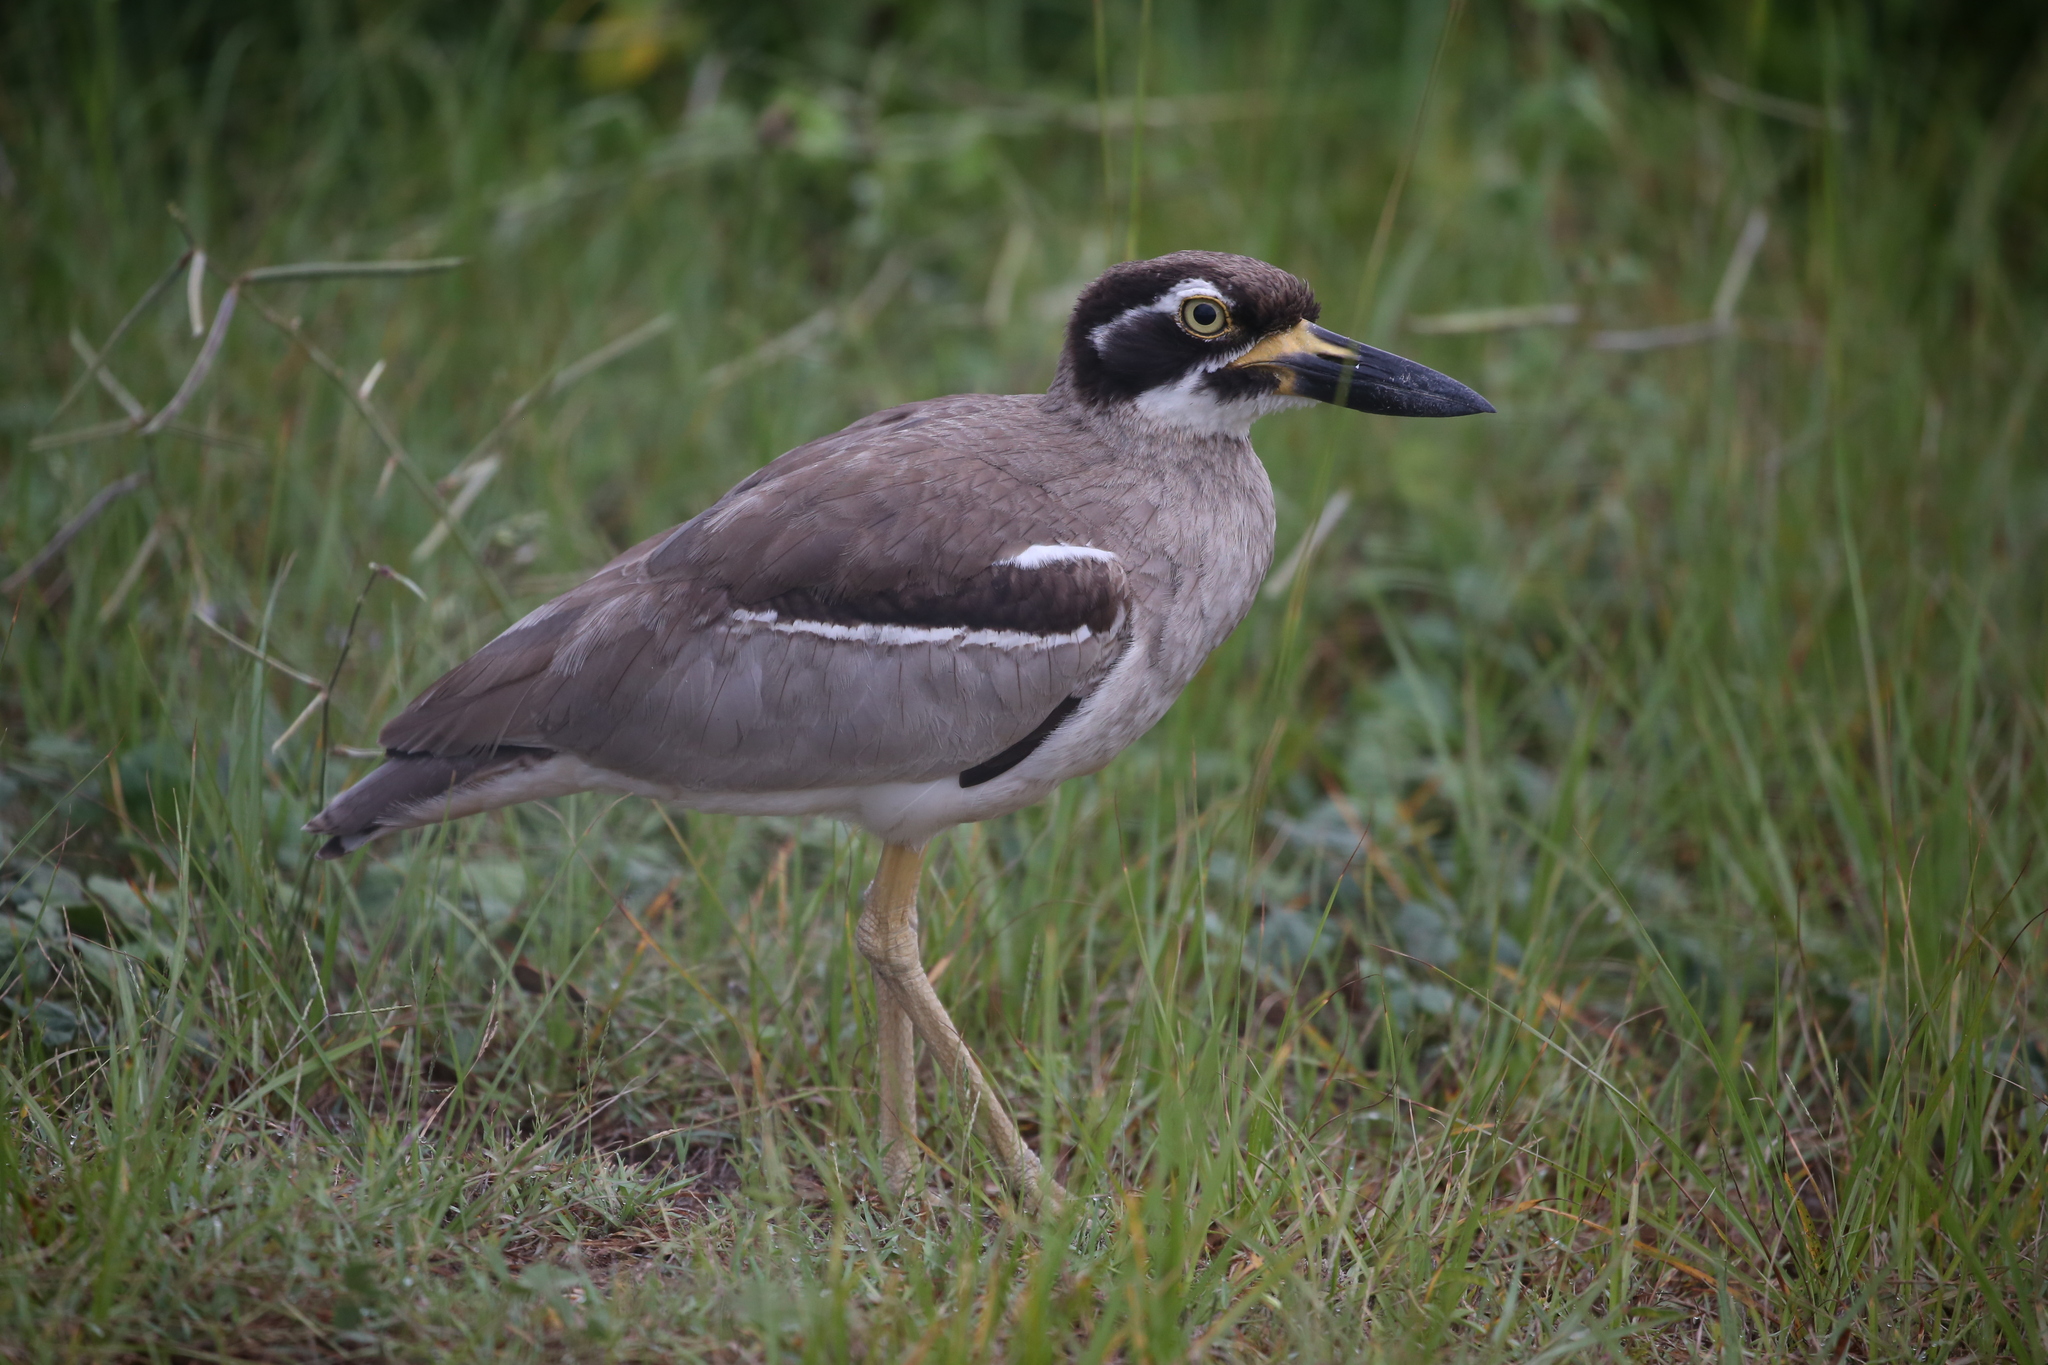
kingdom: Animalia
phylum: Chordata
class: Aves
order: Charadriiformes
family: Burhinidae
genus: Esacus
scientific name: Esacus magnirostris
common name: Beach stone-curlew
